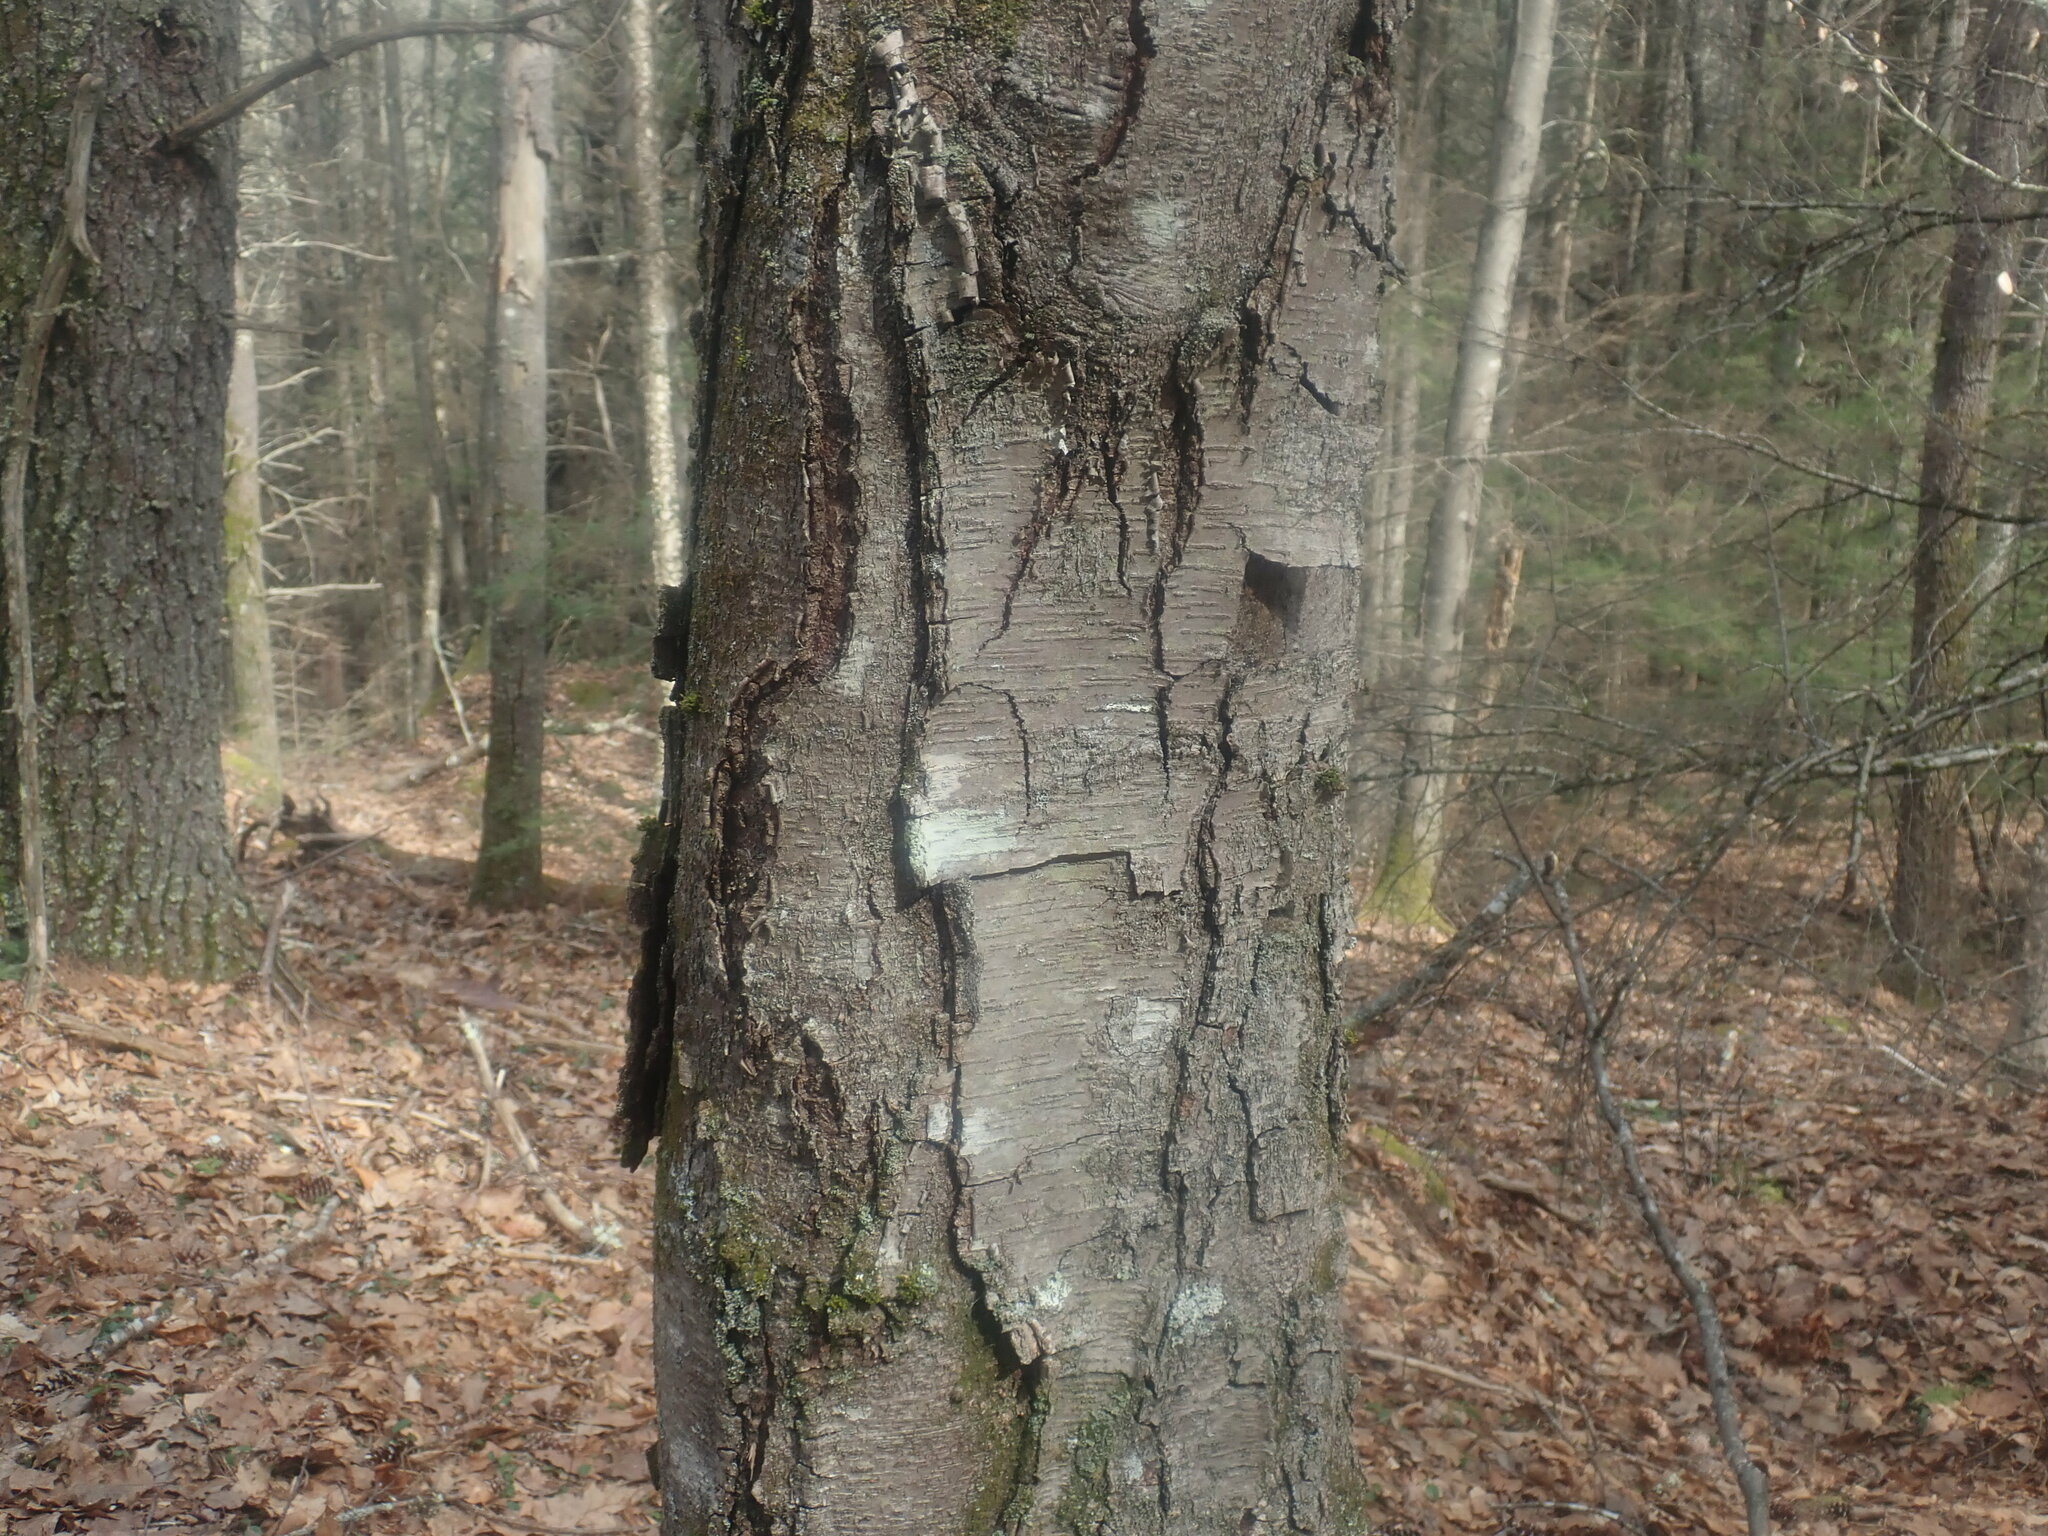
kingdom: Plantae
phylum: Tracheophyta
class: Magnoliopsida
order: Fagales
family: Betulaceae
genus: Betula
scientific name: Betula lenta
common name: Black birch
